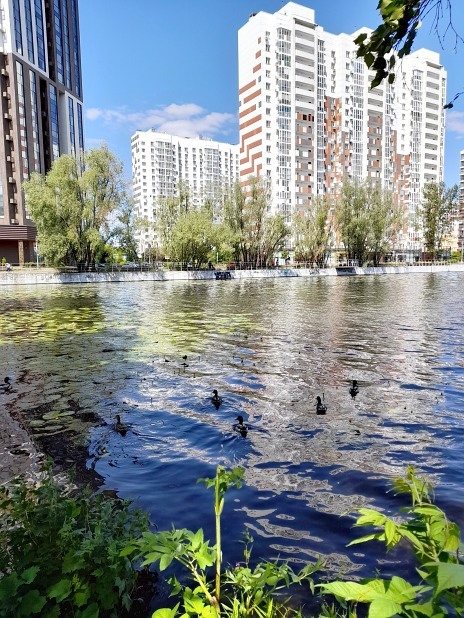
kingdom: Plantae
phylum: Tracheophyta
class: Magnoliopsida
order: Apiales
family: Apiaceae
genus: Angelica
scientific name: Angelica archangelica
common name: Garden angelica
